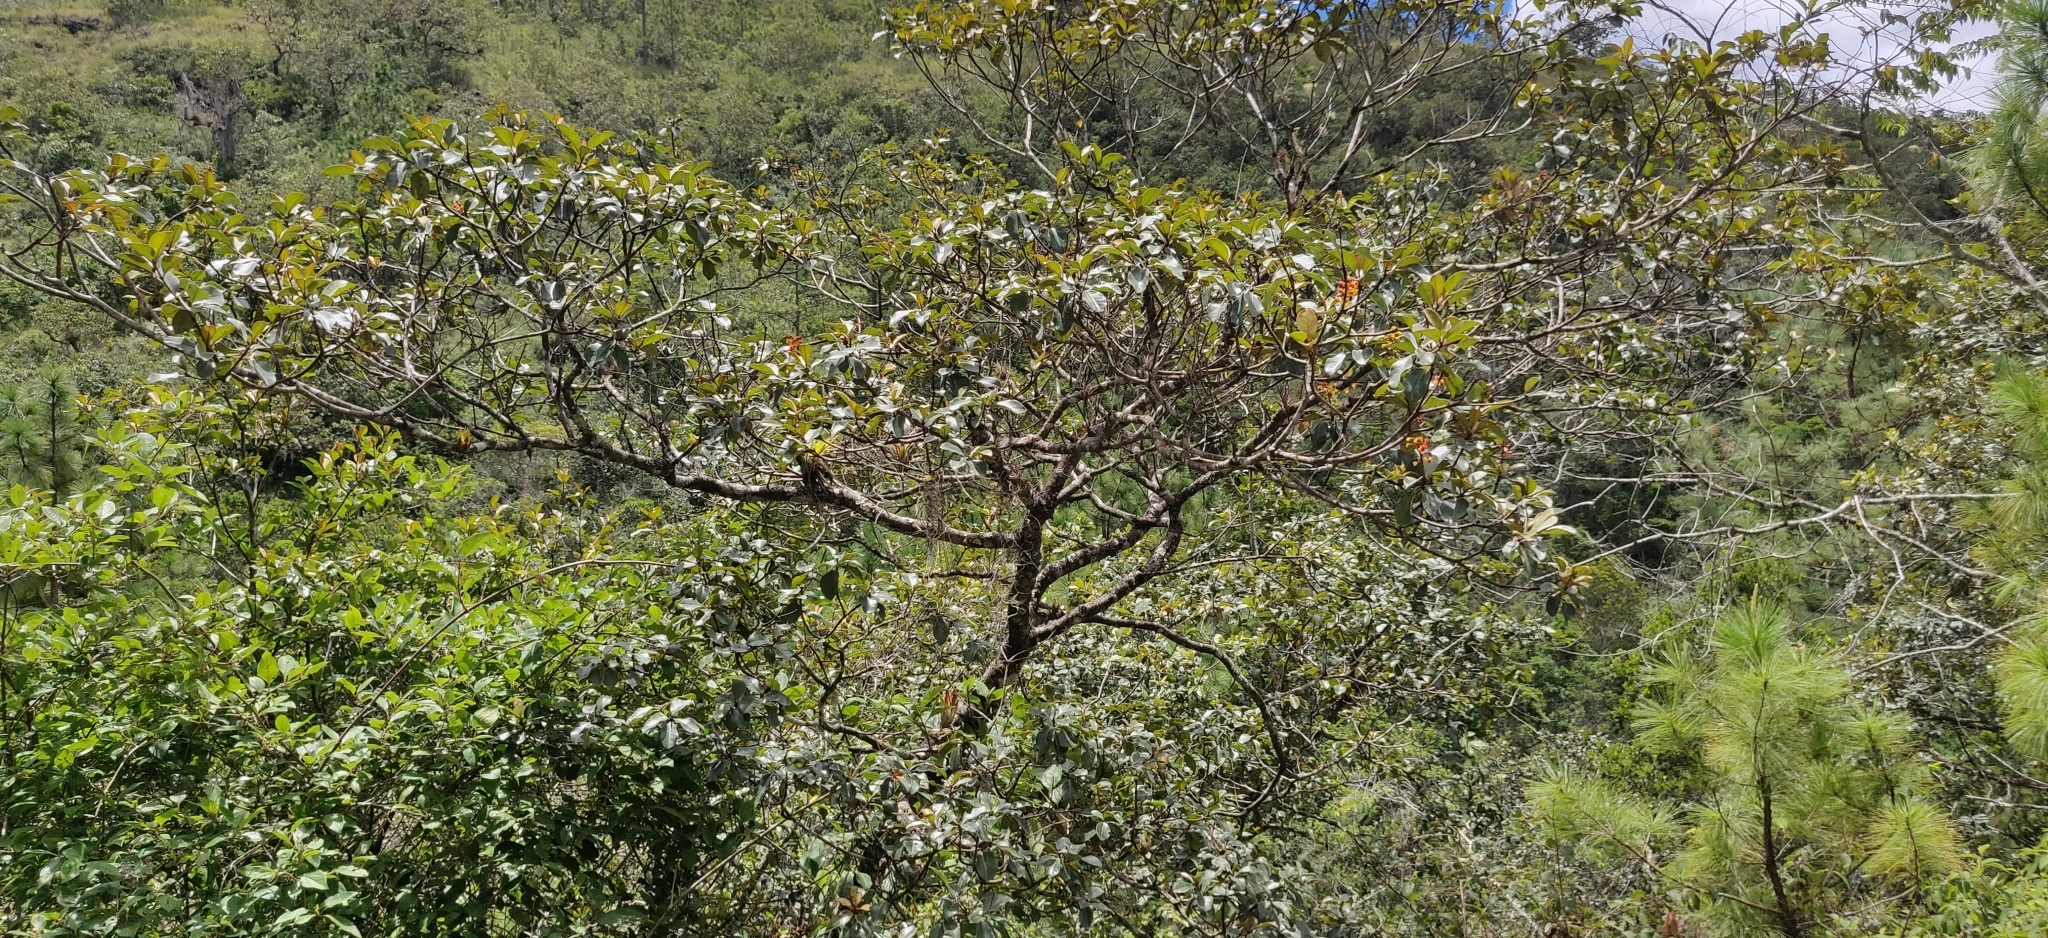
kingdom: Plantae
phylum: Tracheophyta
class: Magnoliopsida
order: Malpighiales
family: Malpighiaceae
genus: Byrsonima
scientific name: Byrsonima crassifolia
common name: Golden spoon
